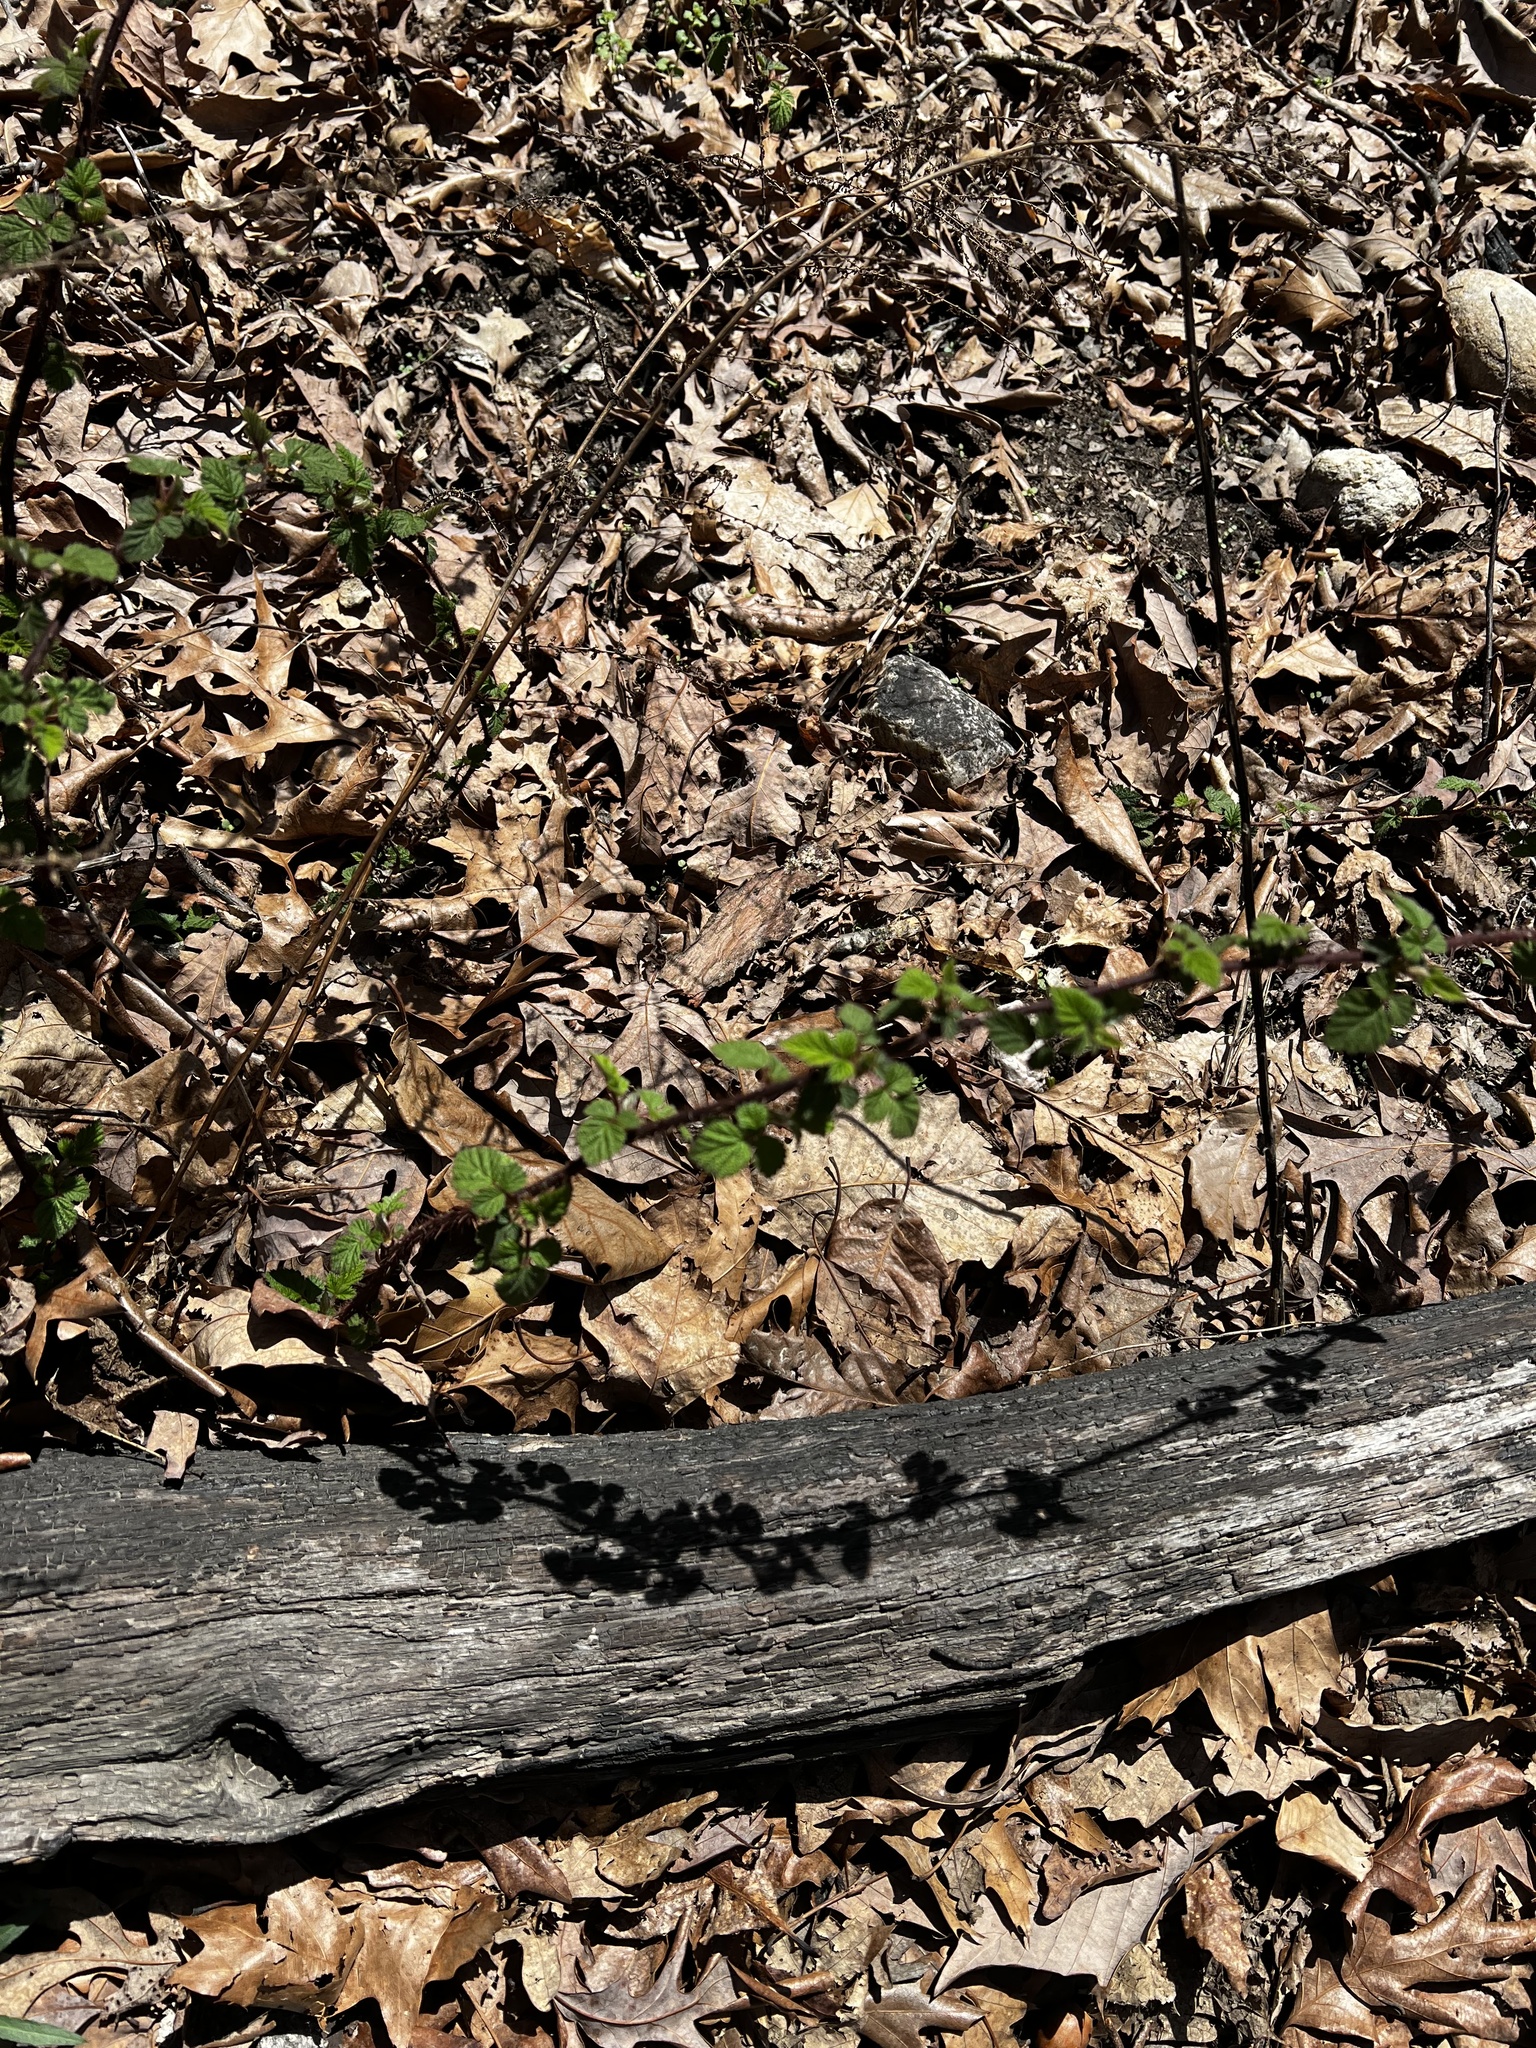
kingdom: Plantae
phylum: Tracheophyta
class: Magnoliopsida
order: Rosales
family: Rosaceae
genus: Rubus
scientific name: Rubus phoenicolasius
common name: Japanese wineberry
